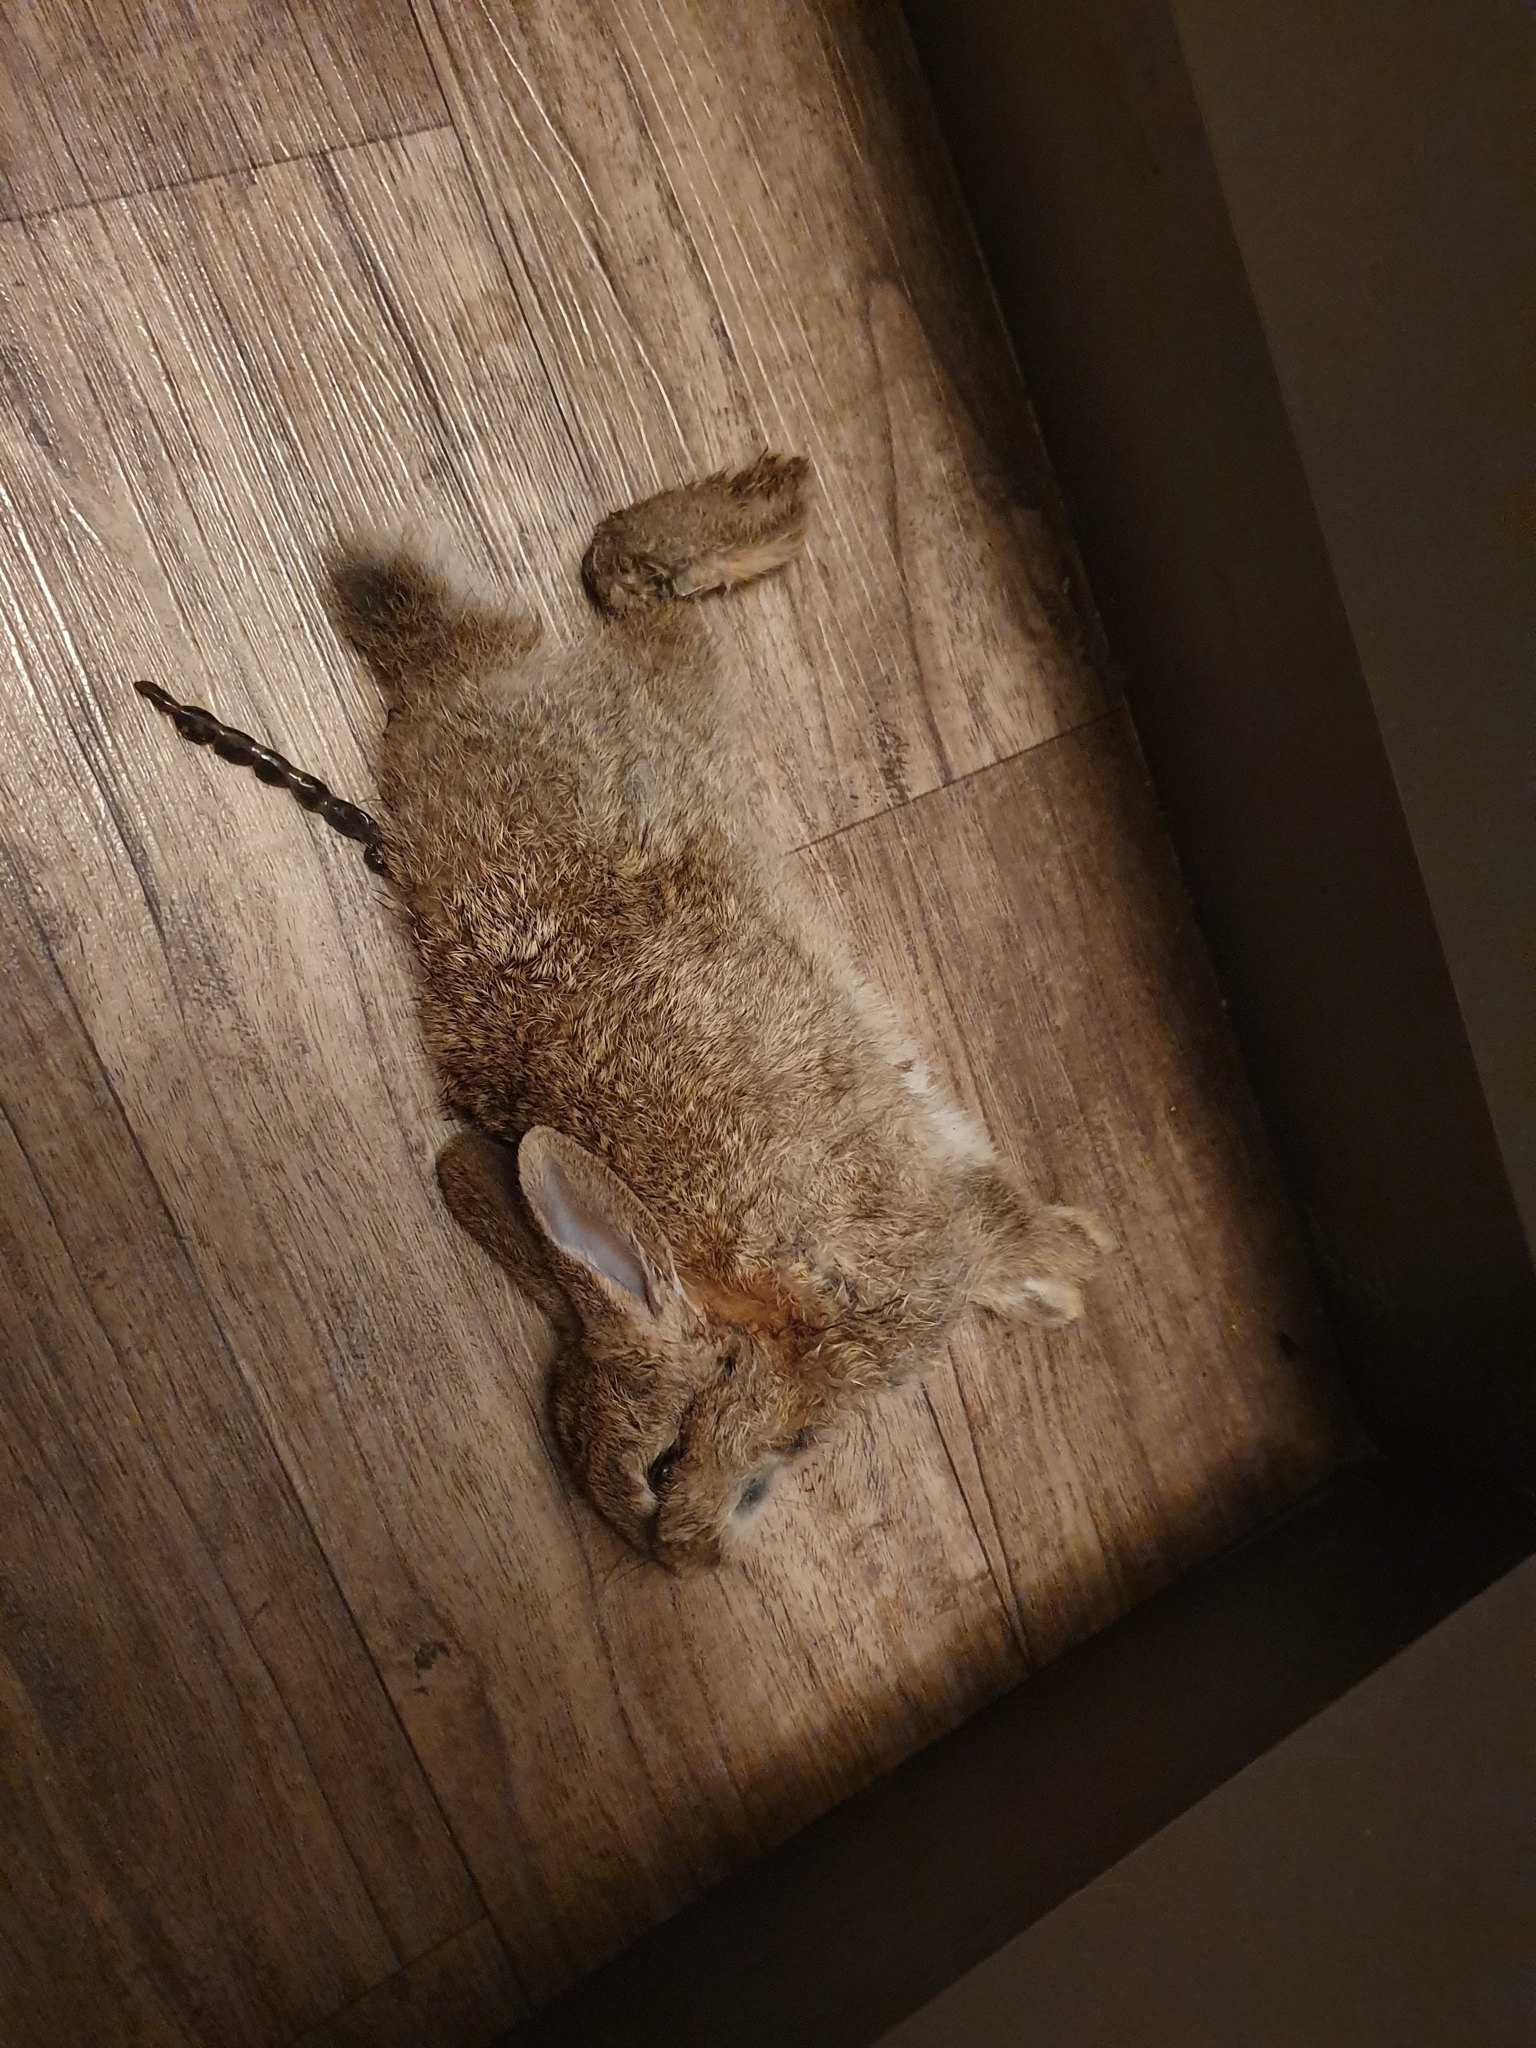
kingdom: Animalia
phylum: Chordata
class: Mammalia
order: Lagomorpha
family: Leporidae
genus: Oryctolagus
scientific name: Oryctolagus cuniculus
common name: European rabbit
